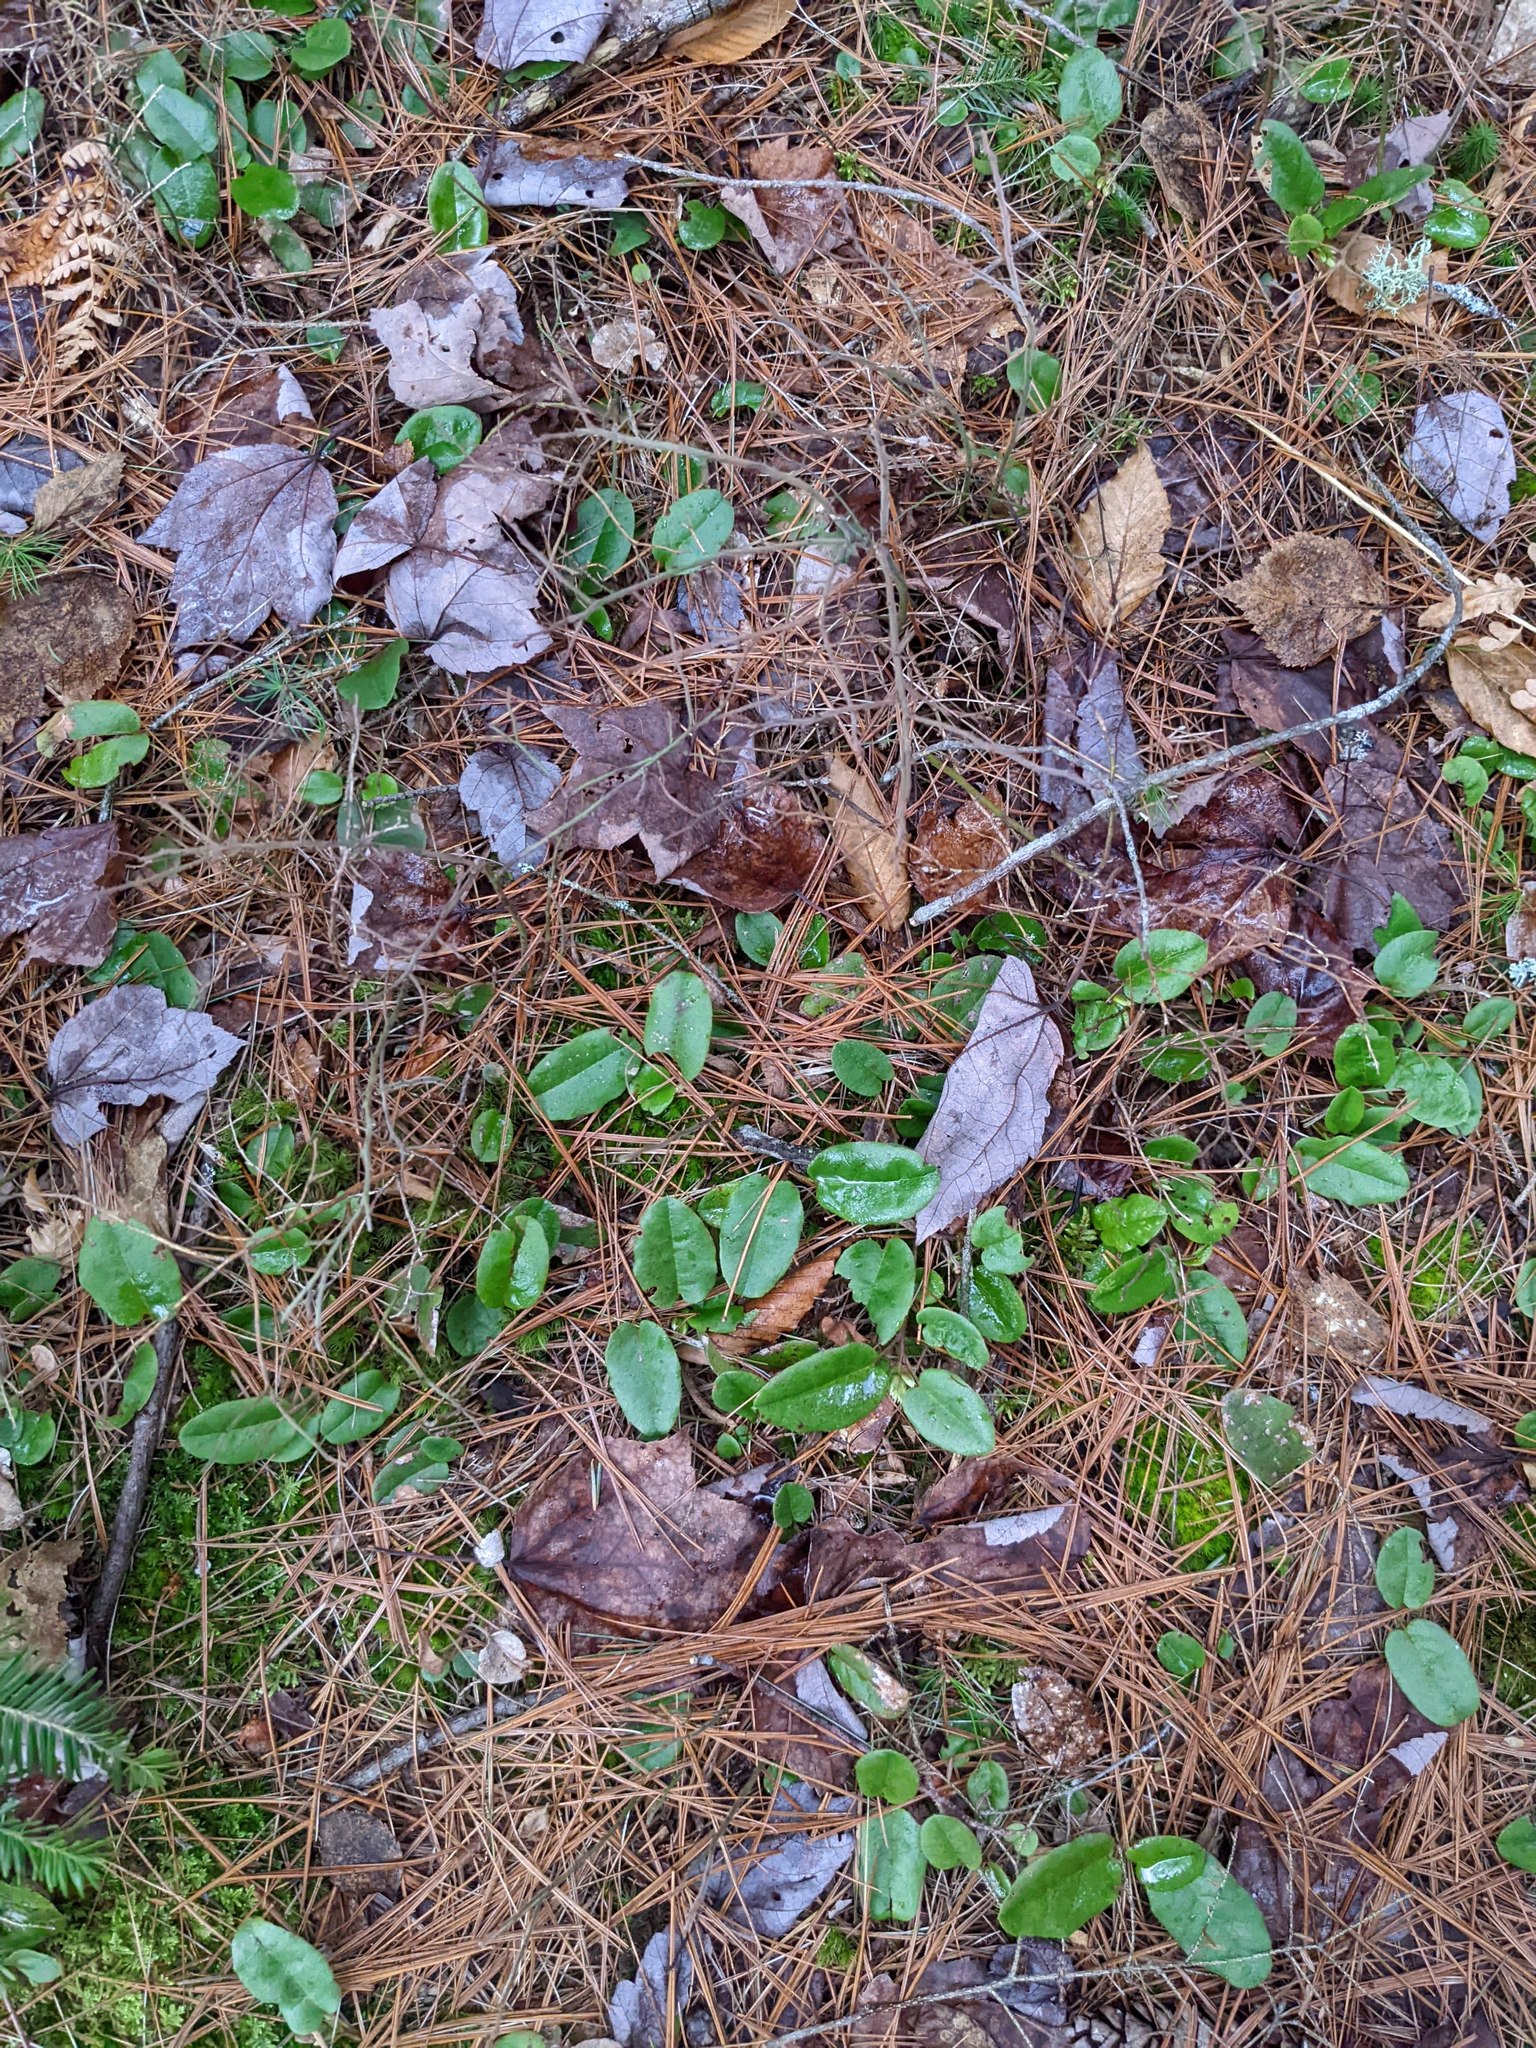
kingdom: Plantae
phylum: Tracheophyta
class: Magnoliopsida
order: Ericales
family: Ericaceae
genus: Epigaea
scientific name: Epigaea repens
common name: Gravelroot
